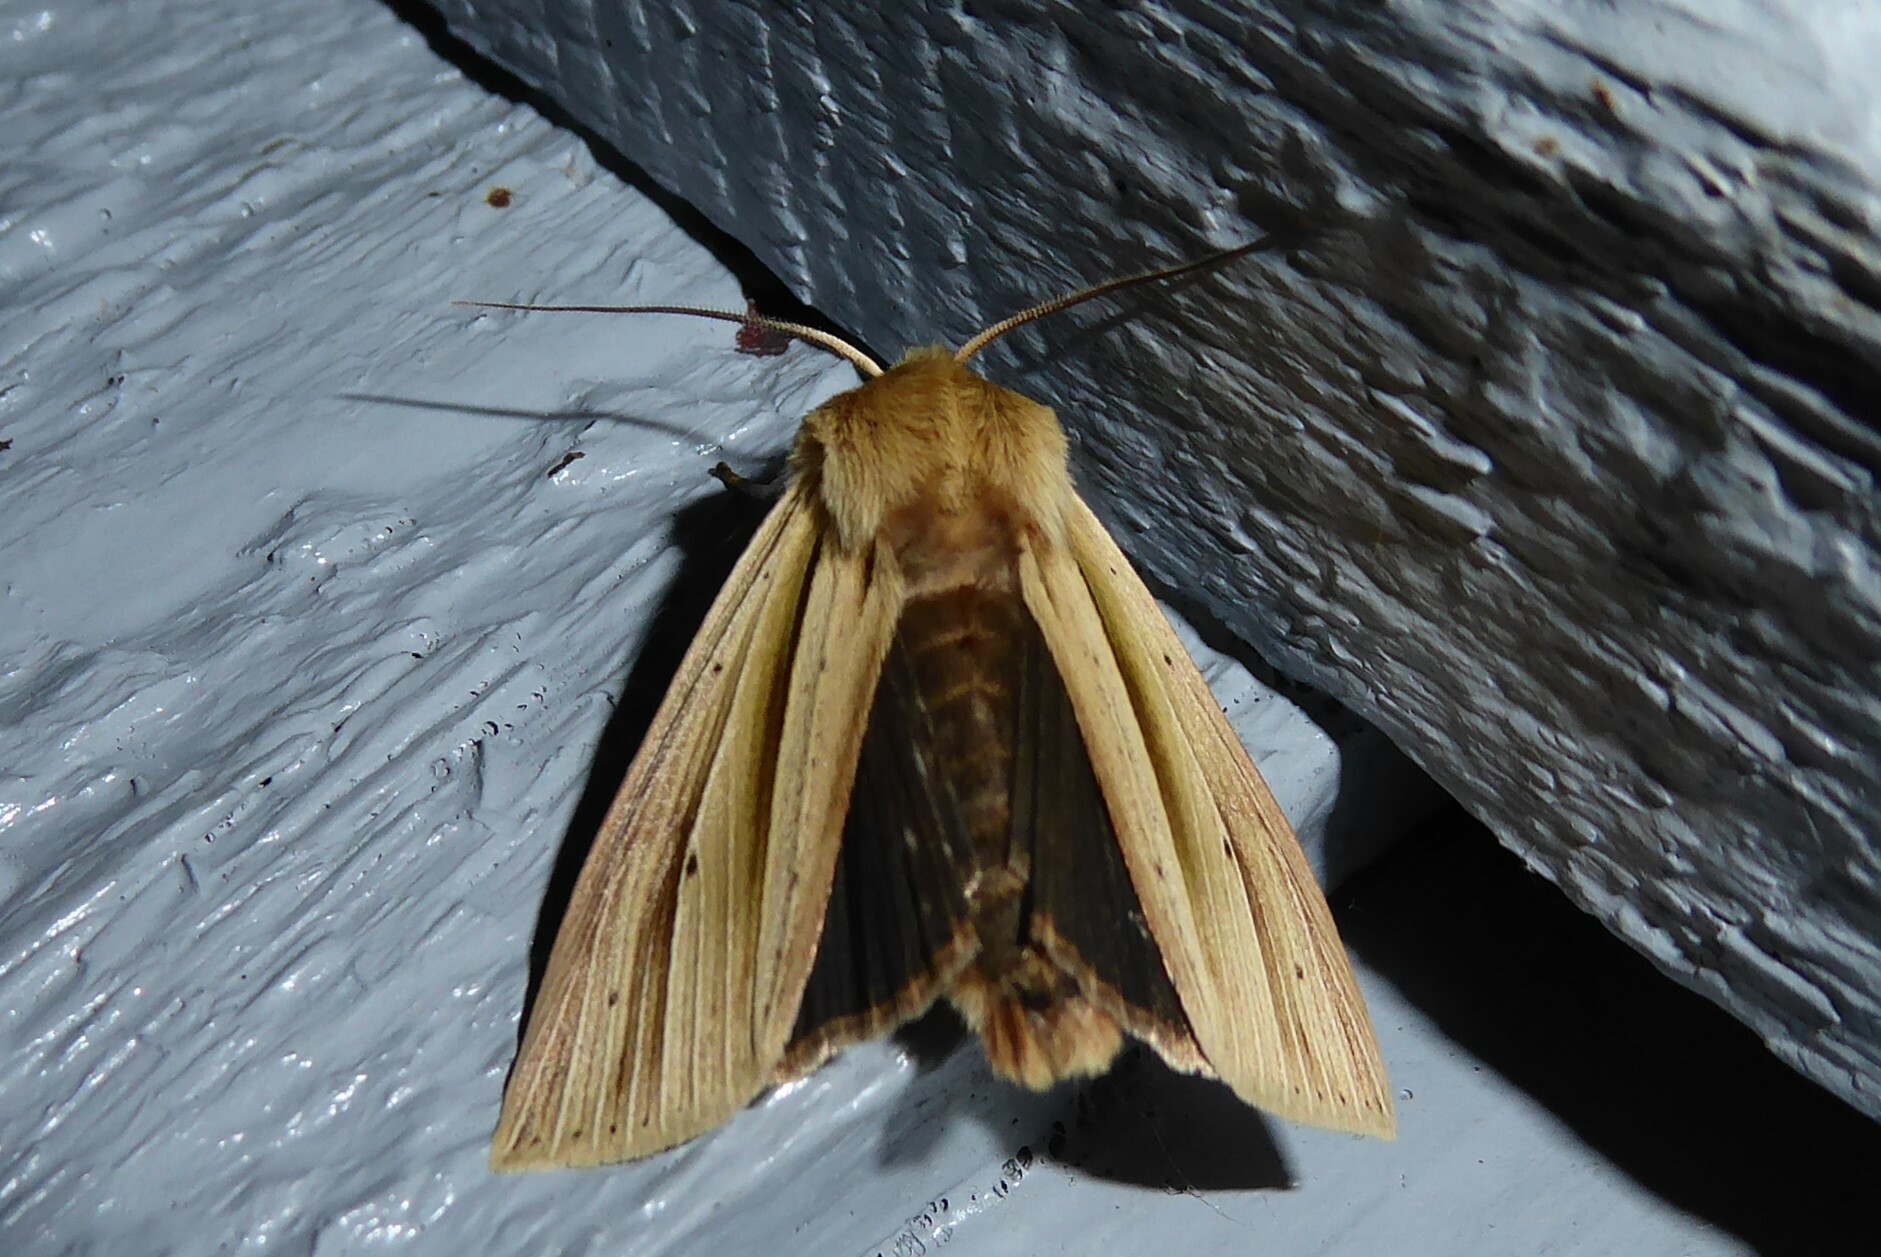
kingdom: Animalia
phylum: Arthropoda
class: Insecta
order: Lepidoptera
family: Noctuidae
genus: Ichneutica
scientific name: Ichneutica sulcana
